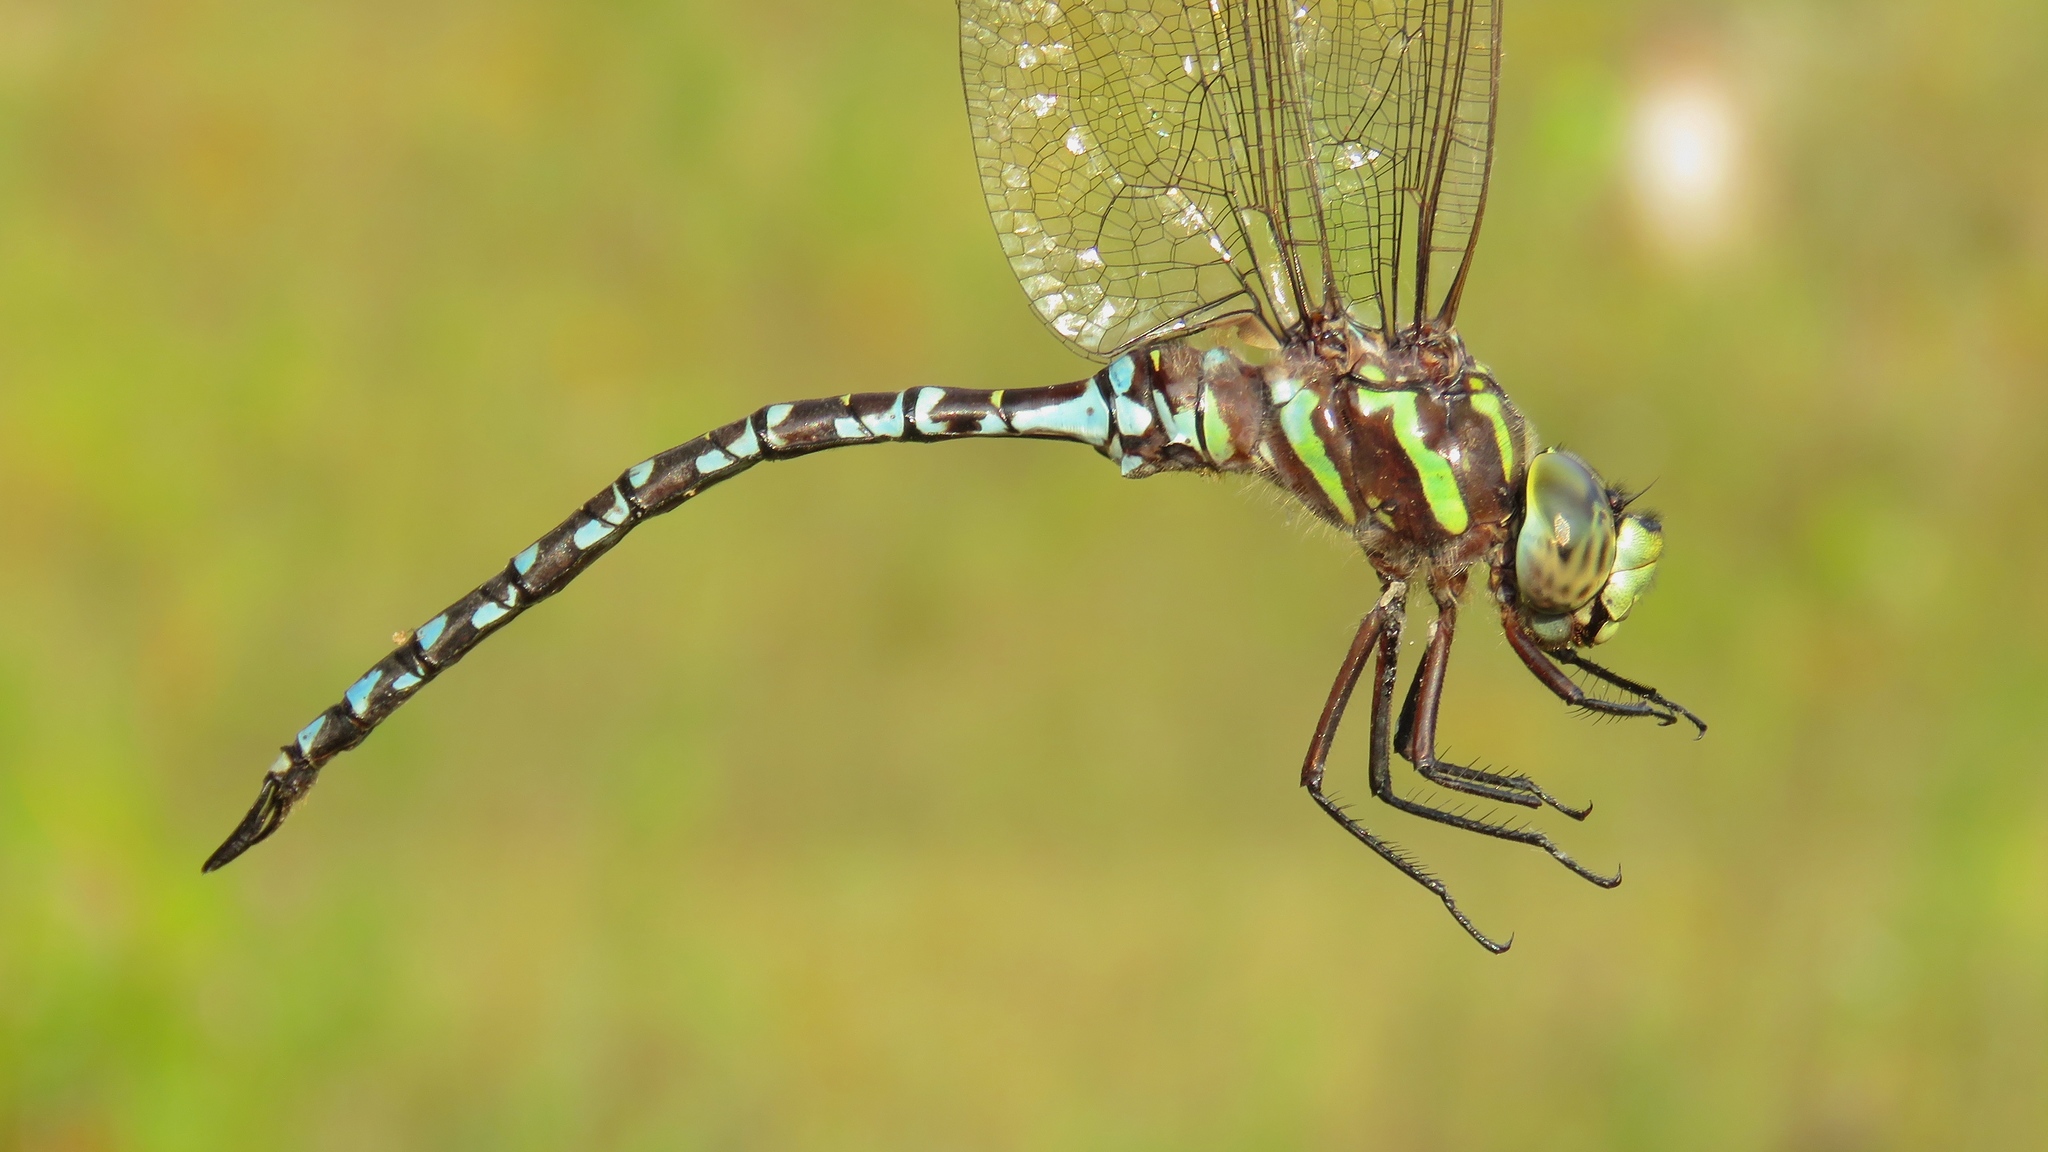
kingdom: Animalia
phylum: Arthropoda
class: Insecta
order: Odonata
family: Aeshnidae
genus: Aeshna
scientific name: Aeshna verticalis
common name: Green-striped darner
